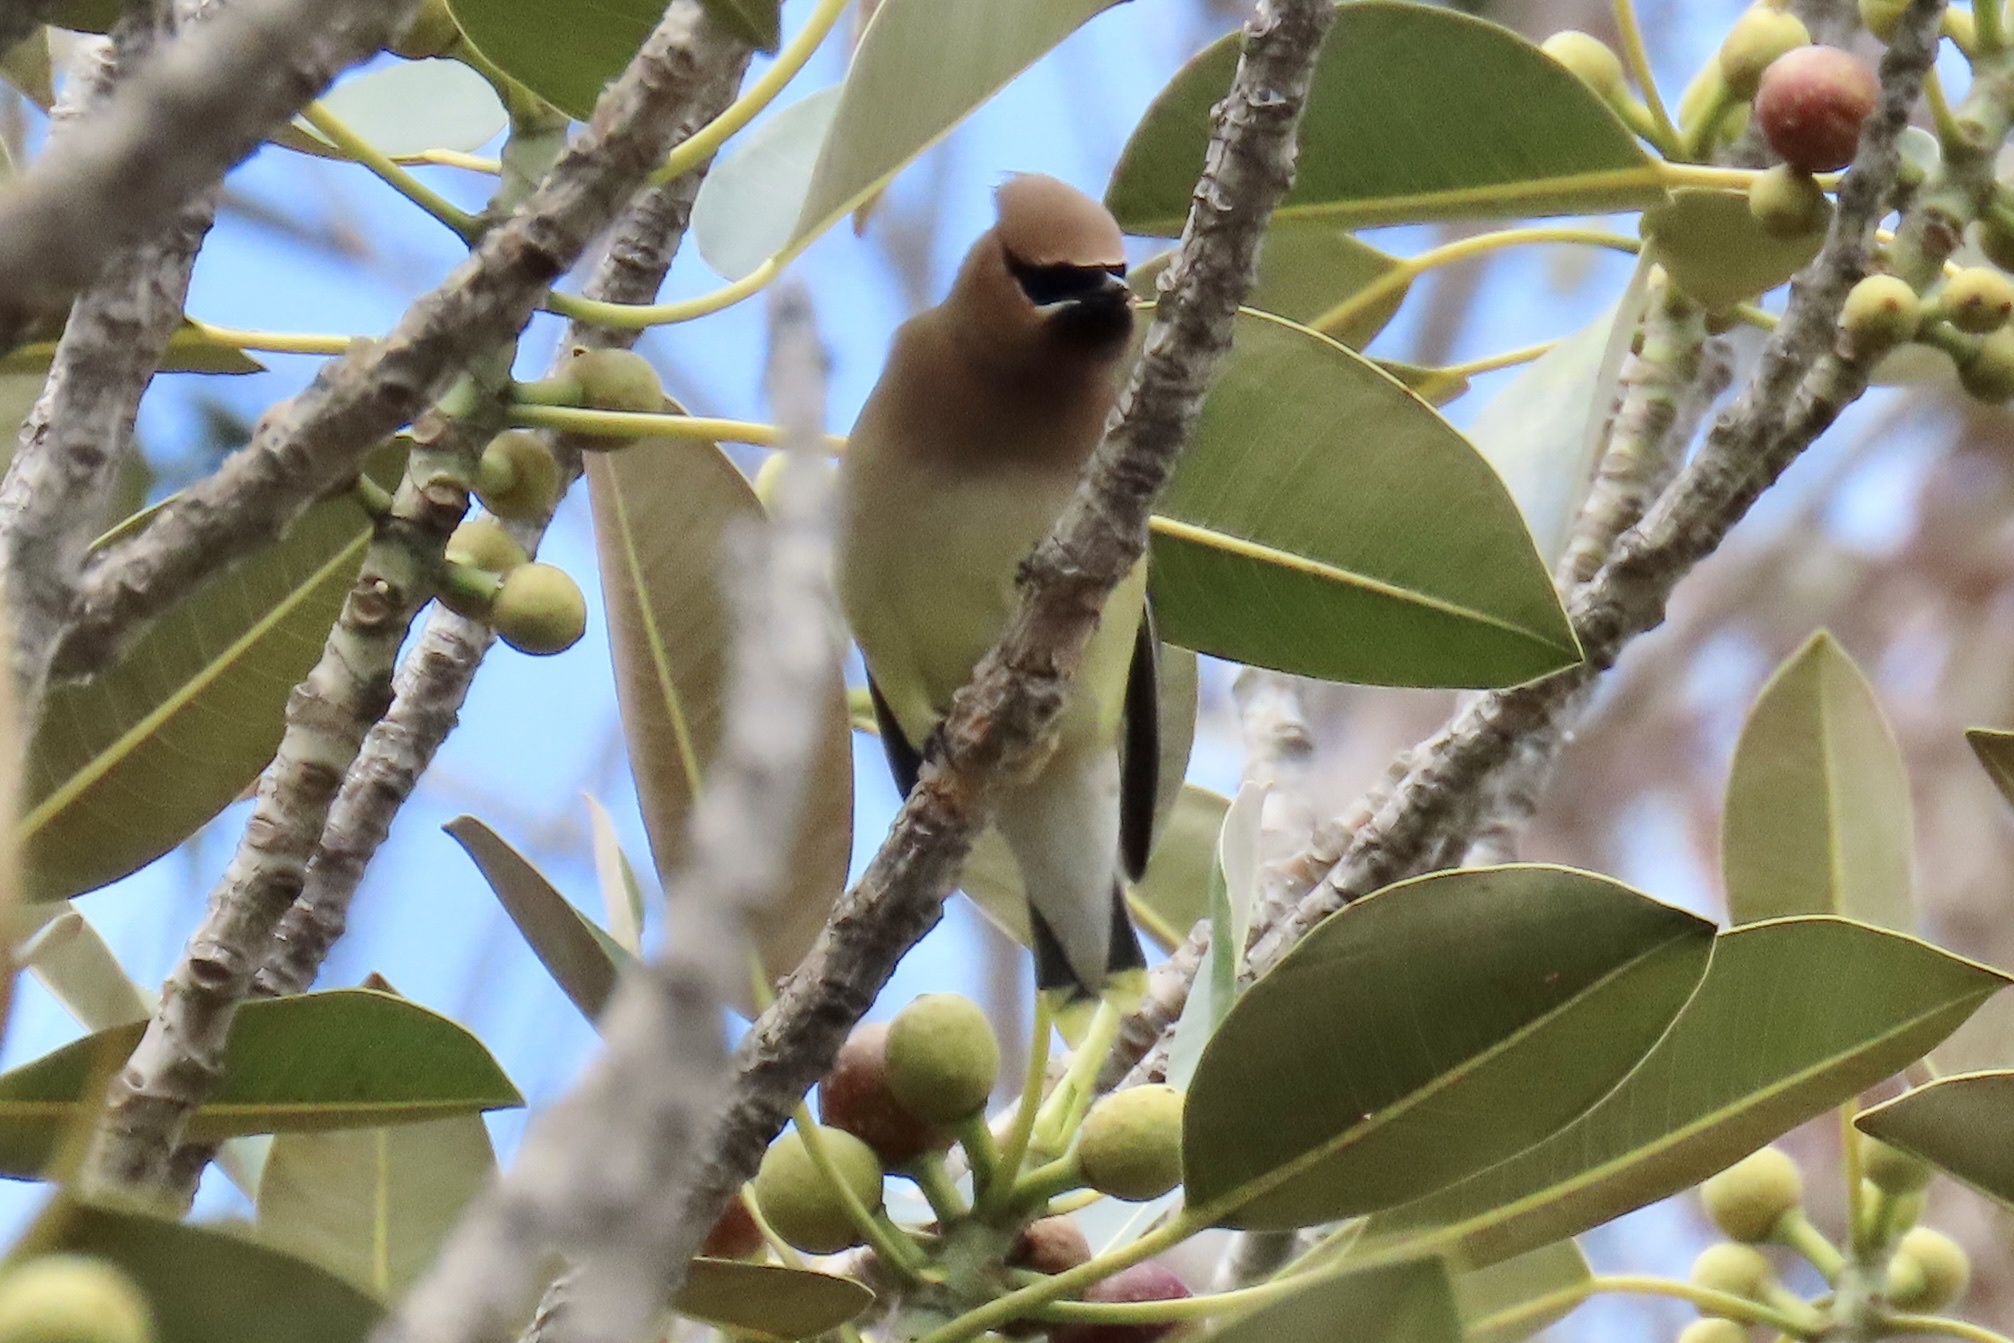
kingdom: Animalia
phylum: Chordata
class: Aves
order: Passeriformes
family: Bombycillidae
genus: Bombycilla
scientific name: Bombycilla cedrorum
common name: Cedar waxwing
